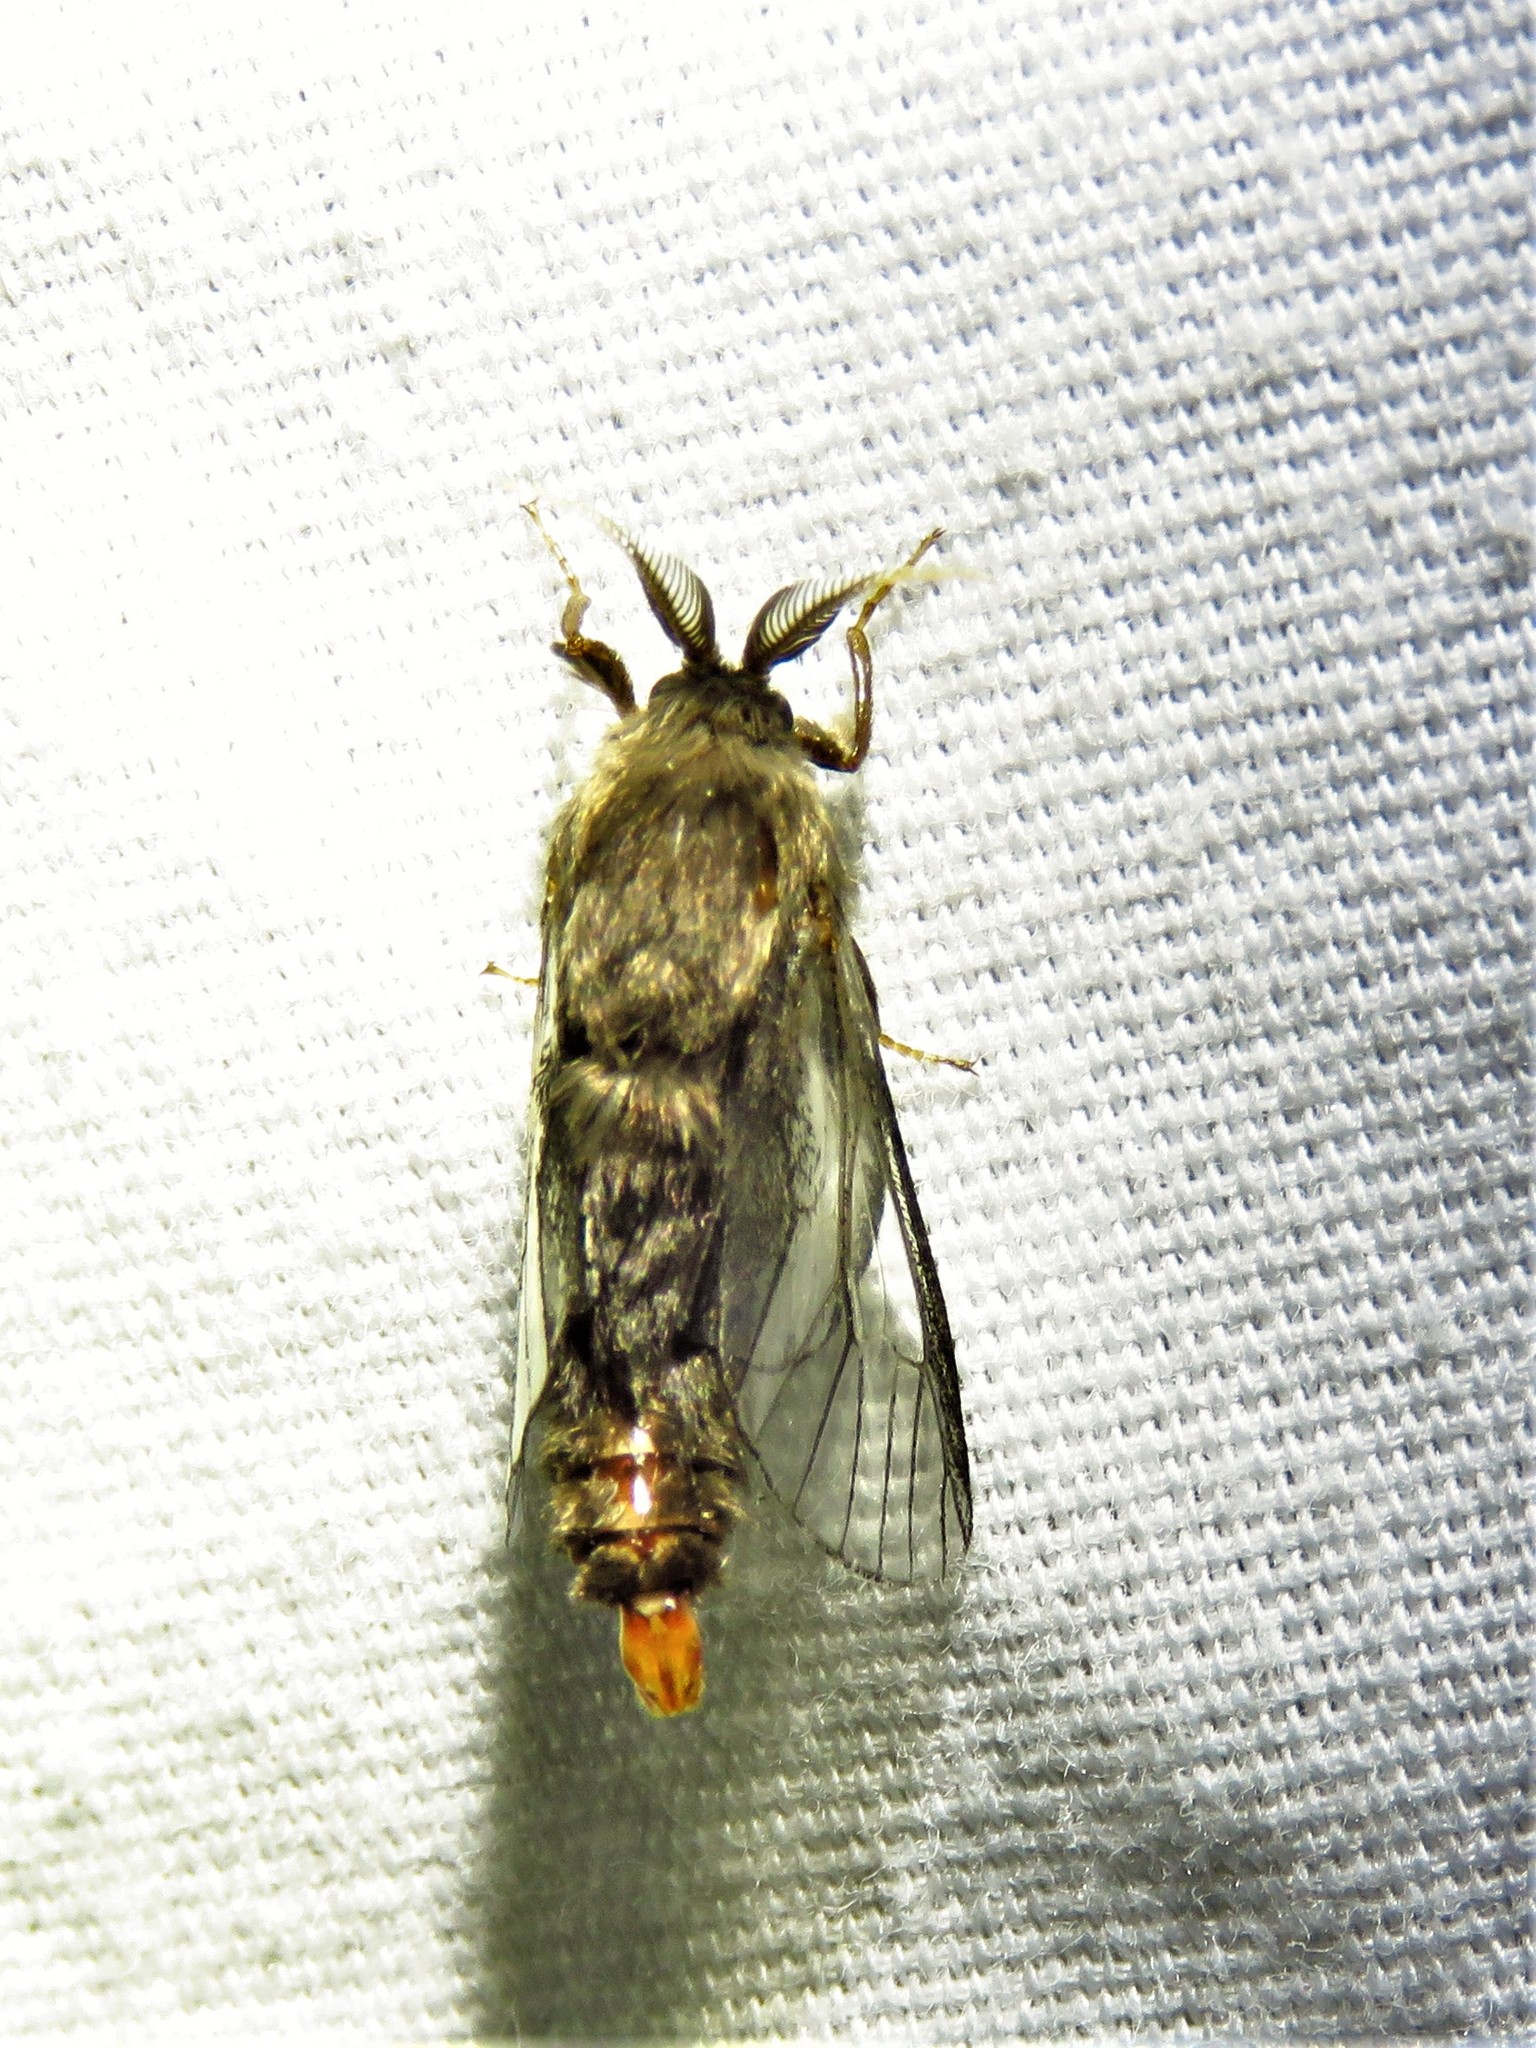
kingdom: Animalia
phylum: Arthropoda
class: Insecta
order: Lepidoptera
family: Psychidae
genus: Thyridopteryx
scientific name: Thyridopteryx ephemeraeformis
